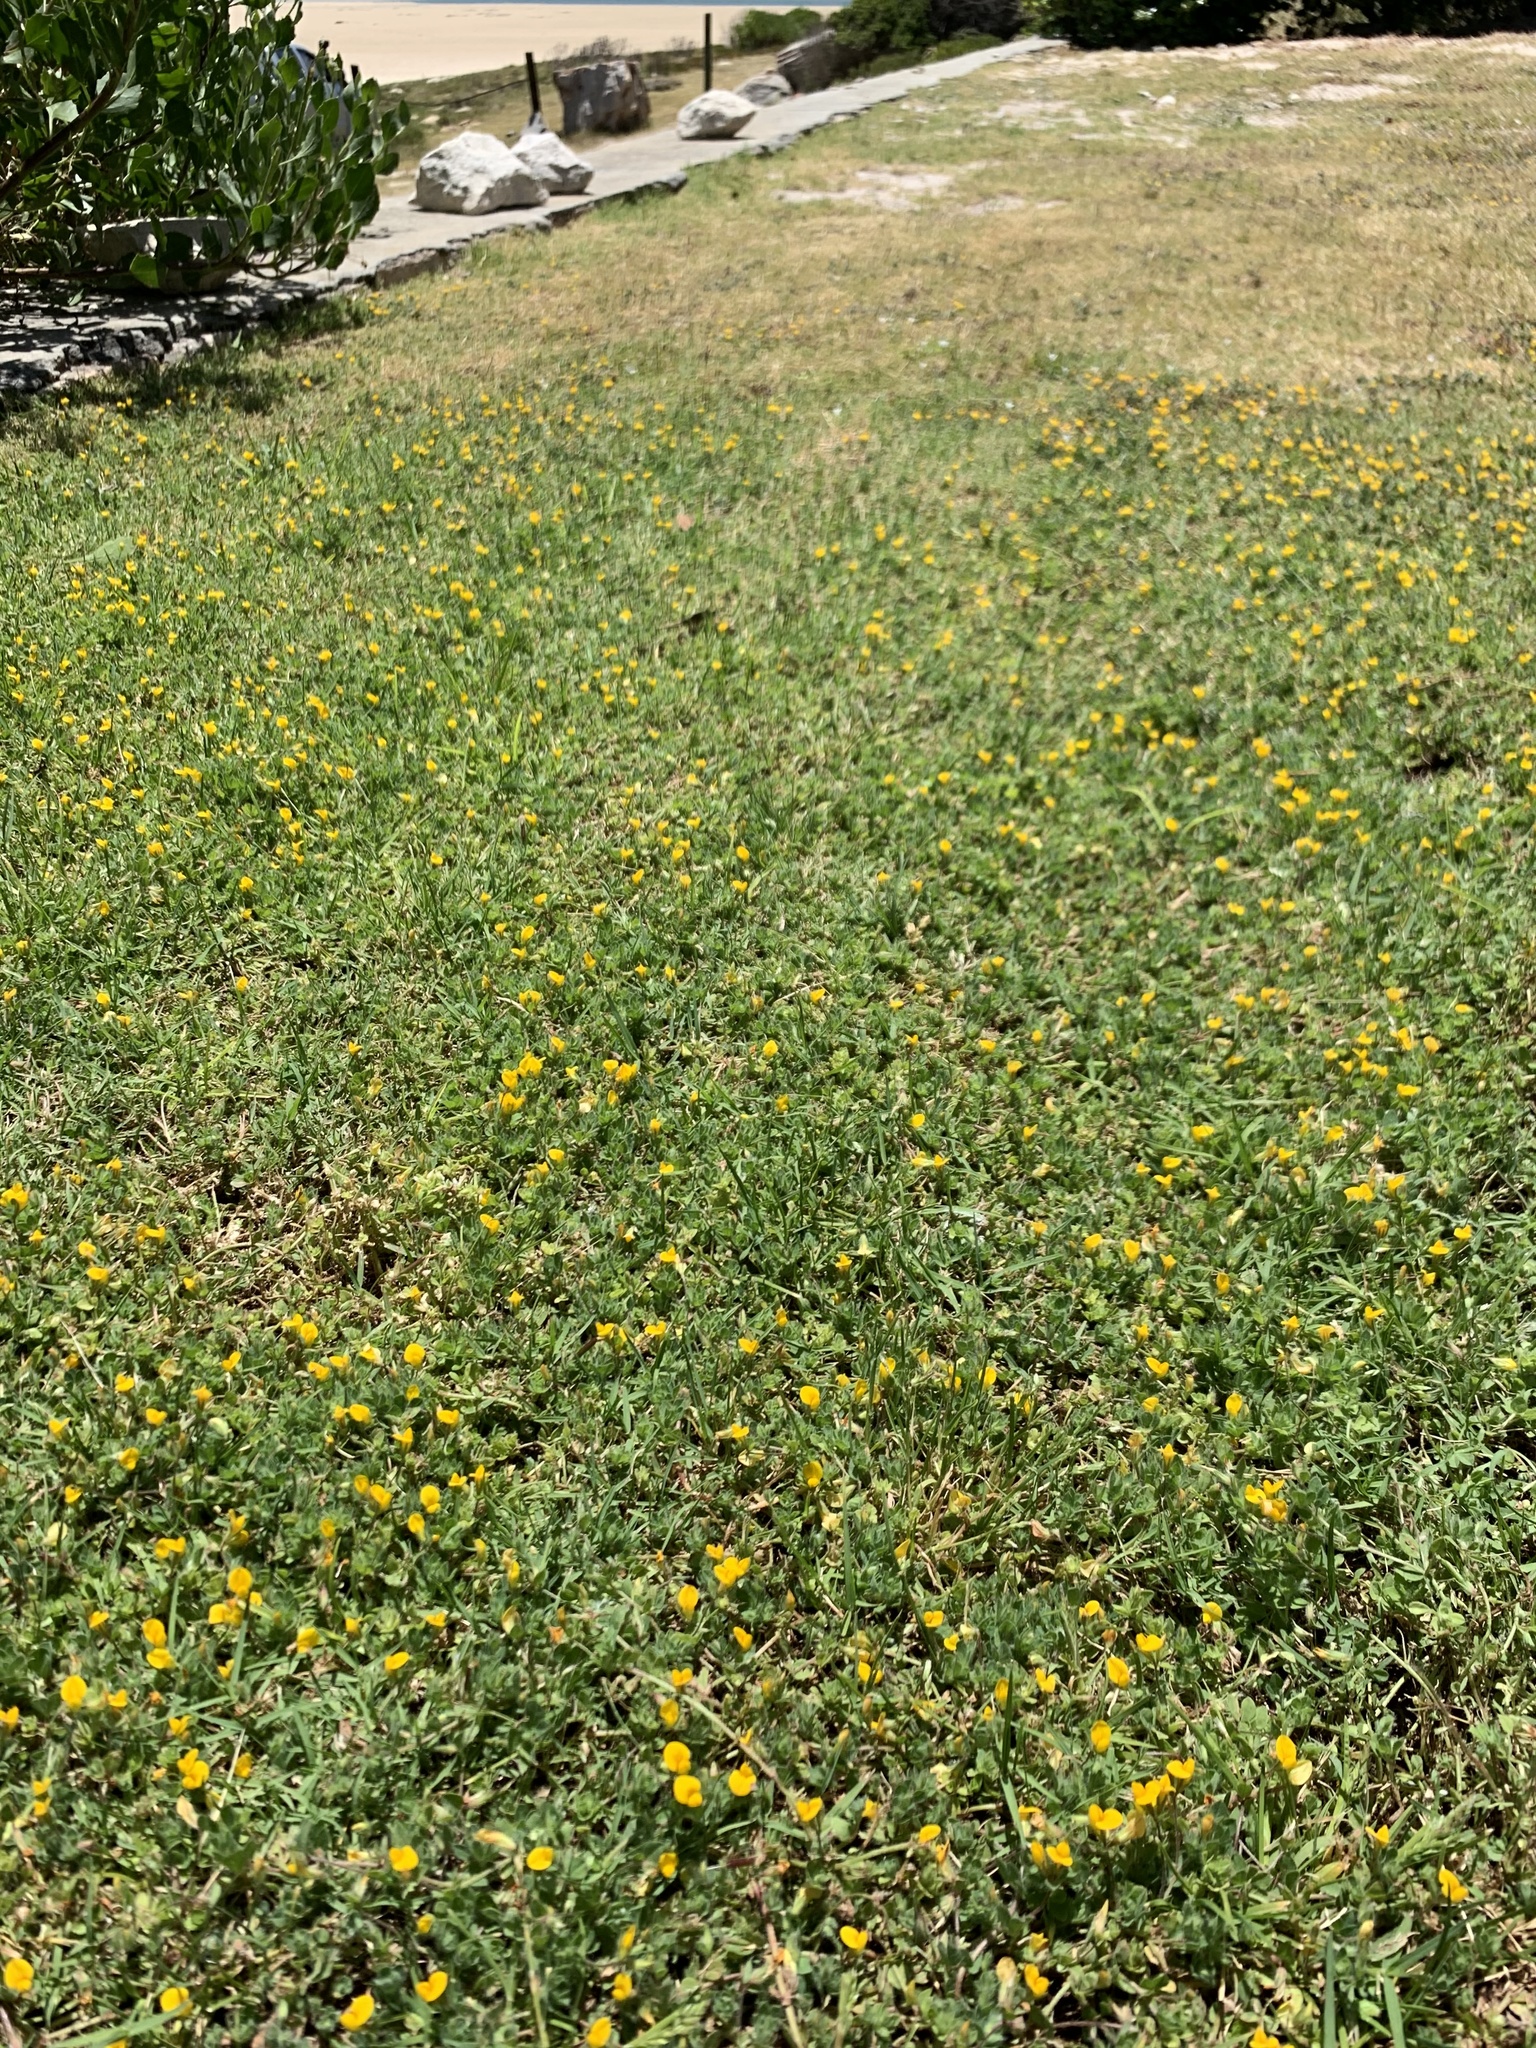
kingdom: Plantae
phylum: Tracheophyta
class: Magnoliopsida
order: Fabales
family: Fabaceae
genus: Lotus
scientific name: Lotus subbiflorus
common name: Hairy bird's-foot trefoil
